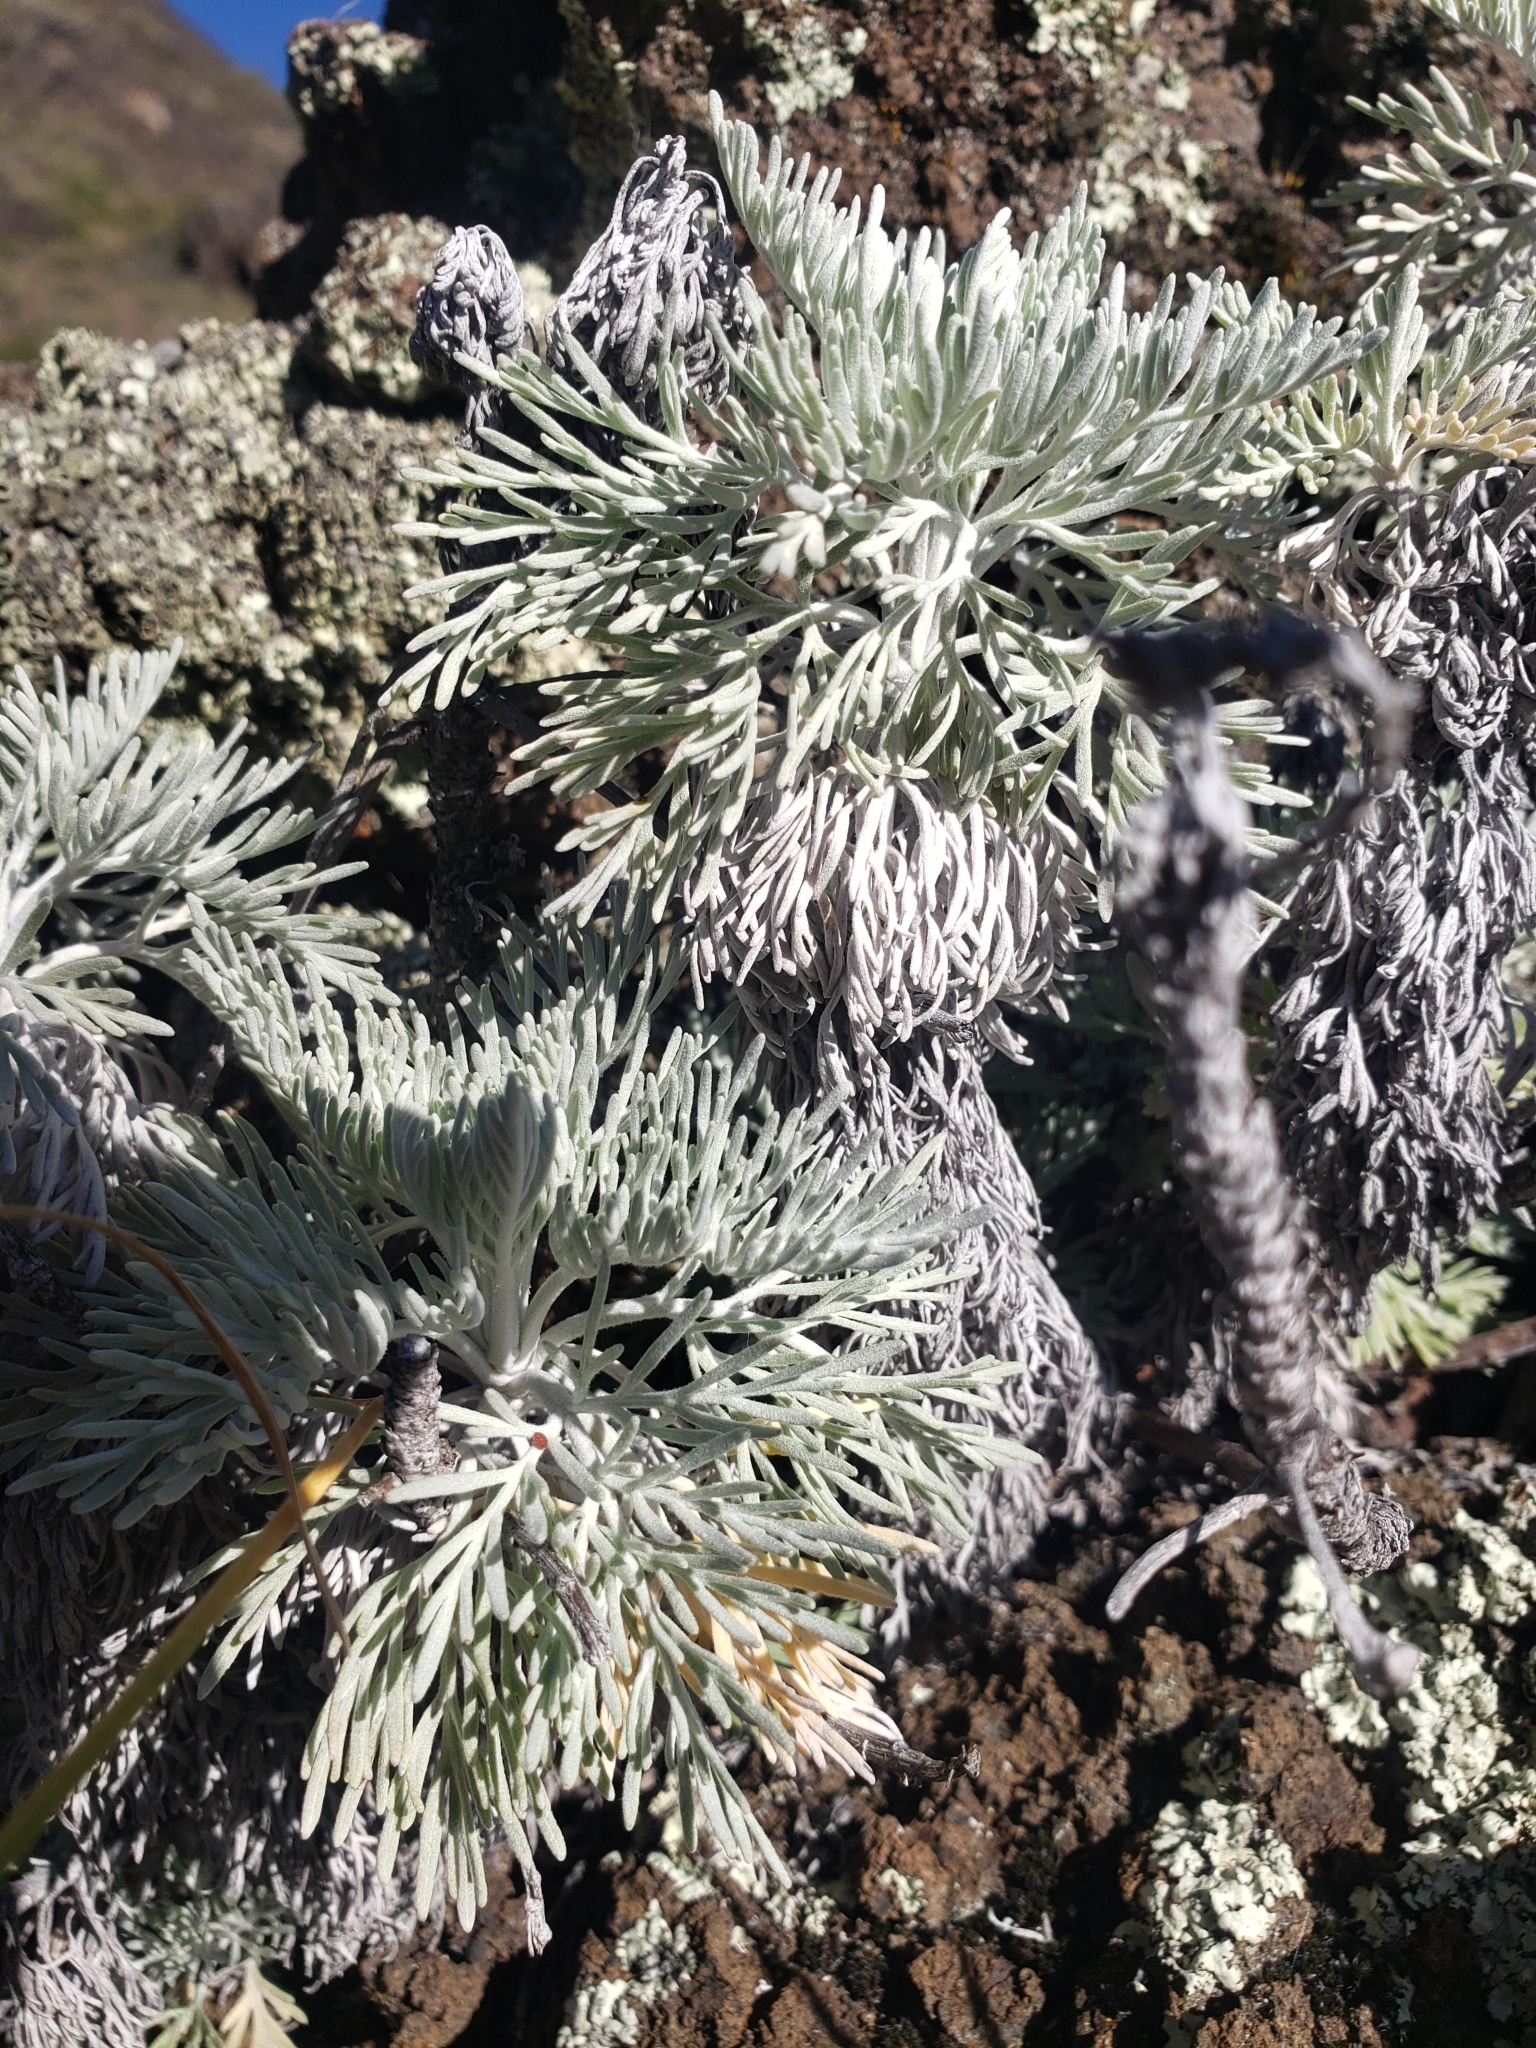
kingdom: Plantae
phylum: Tracheophyta
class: Magnoliopsida
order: Asterales
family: Asteraceae
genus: Artemisia
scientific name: Artemisia mauiensis
